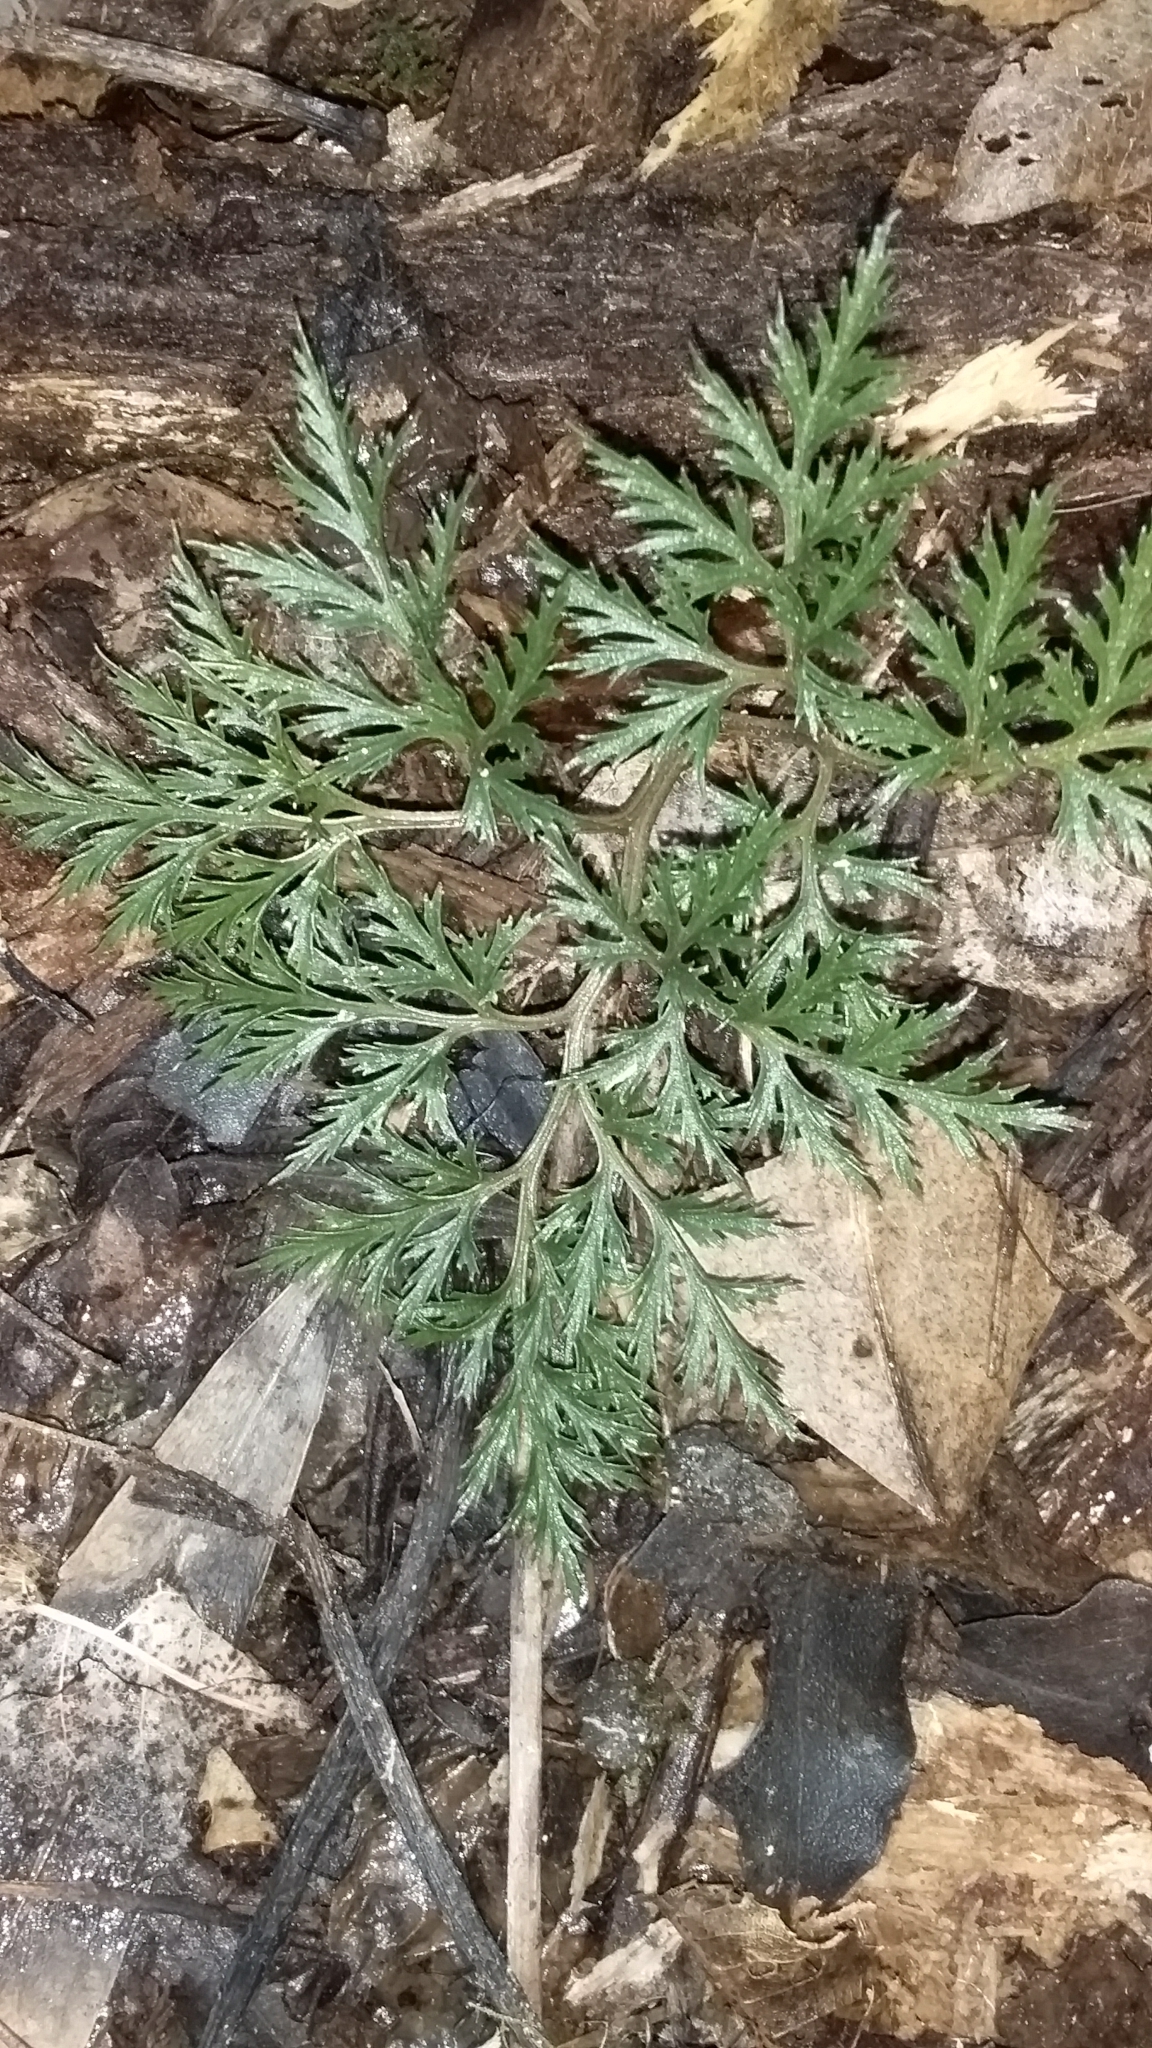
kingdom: Plantae
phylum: Tracheophyta
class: Polypodiopsida
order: Ophioglossales
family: Ophioglossaceae
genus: Sceptridium
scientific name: Sceptridium biforme
